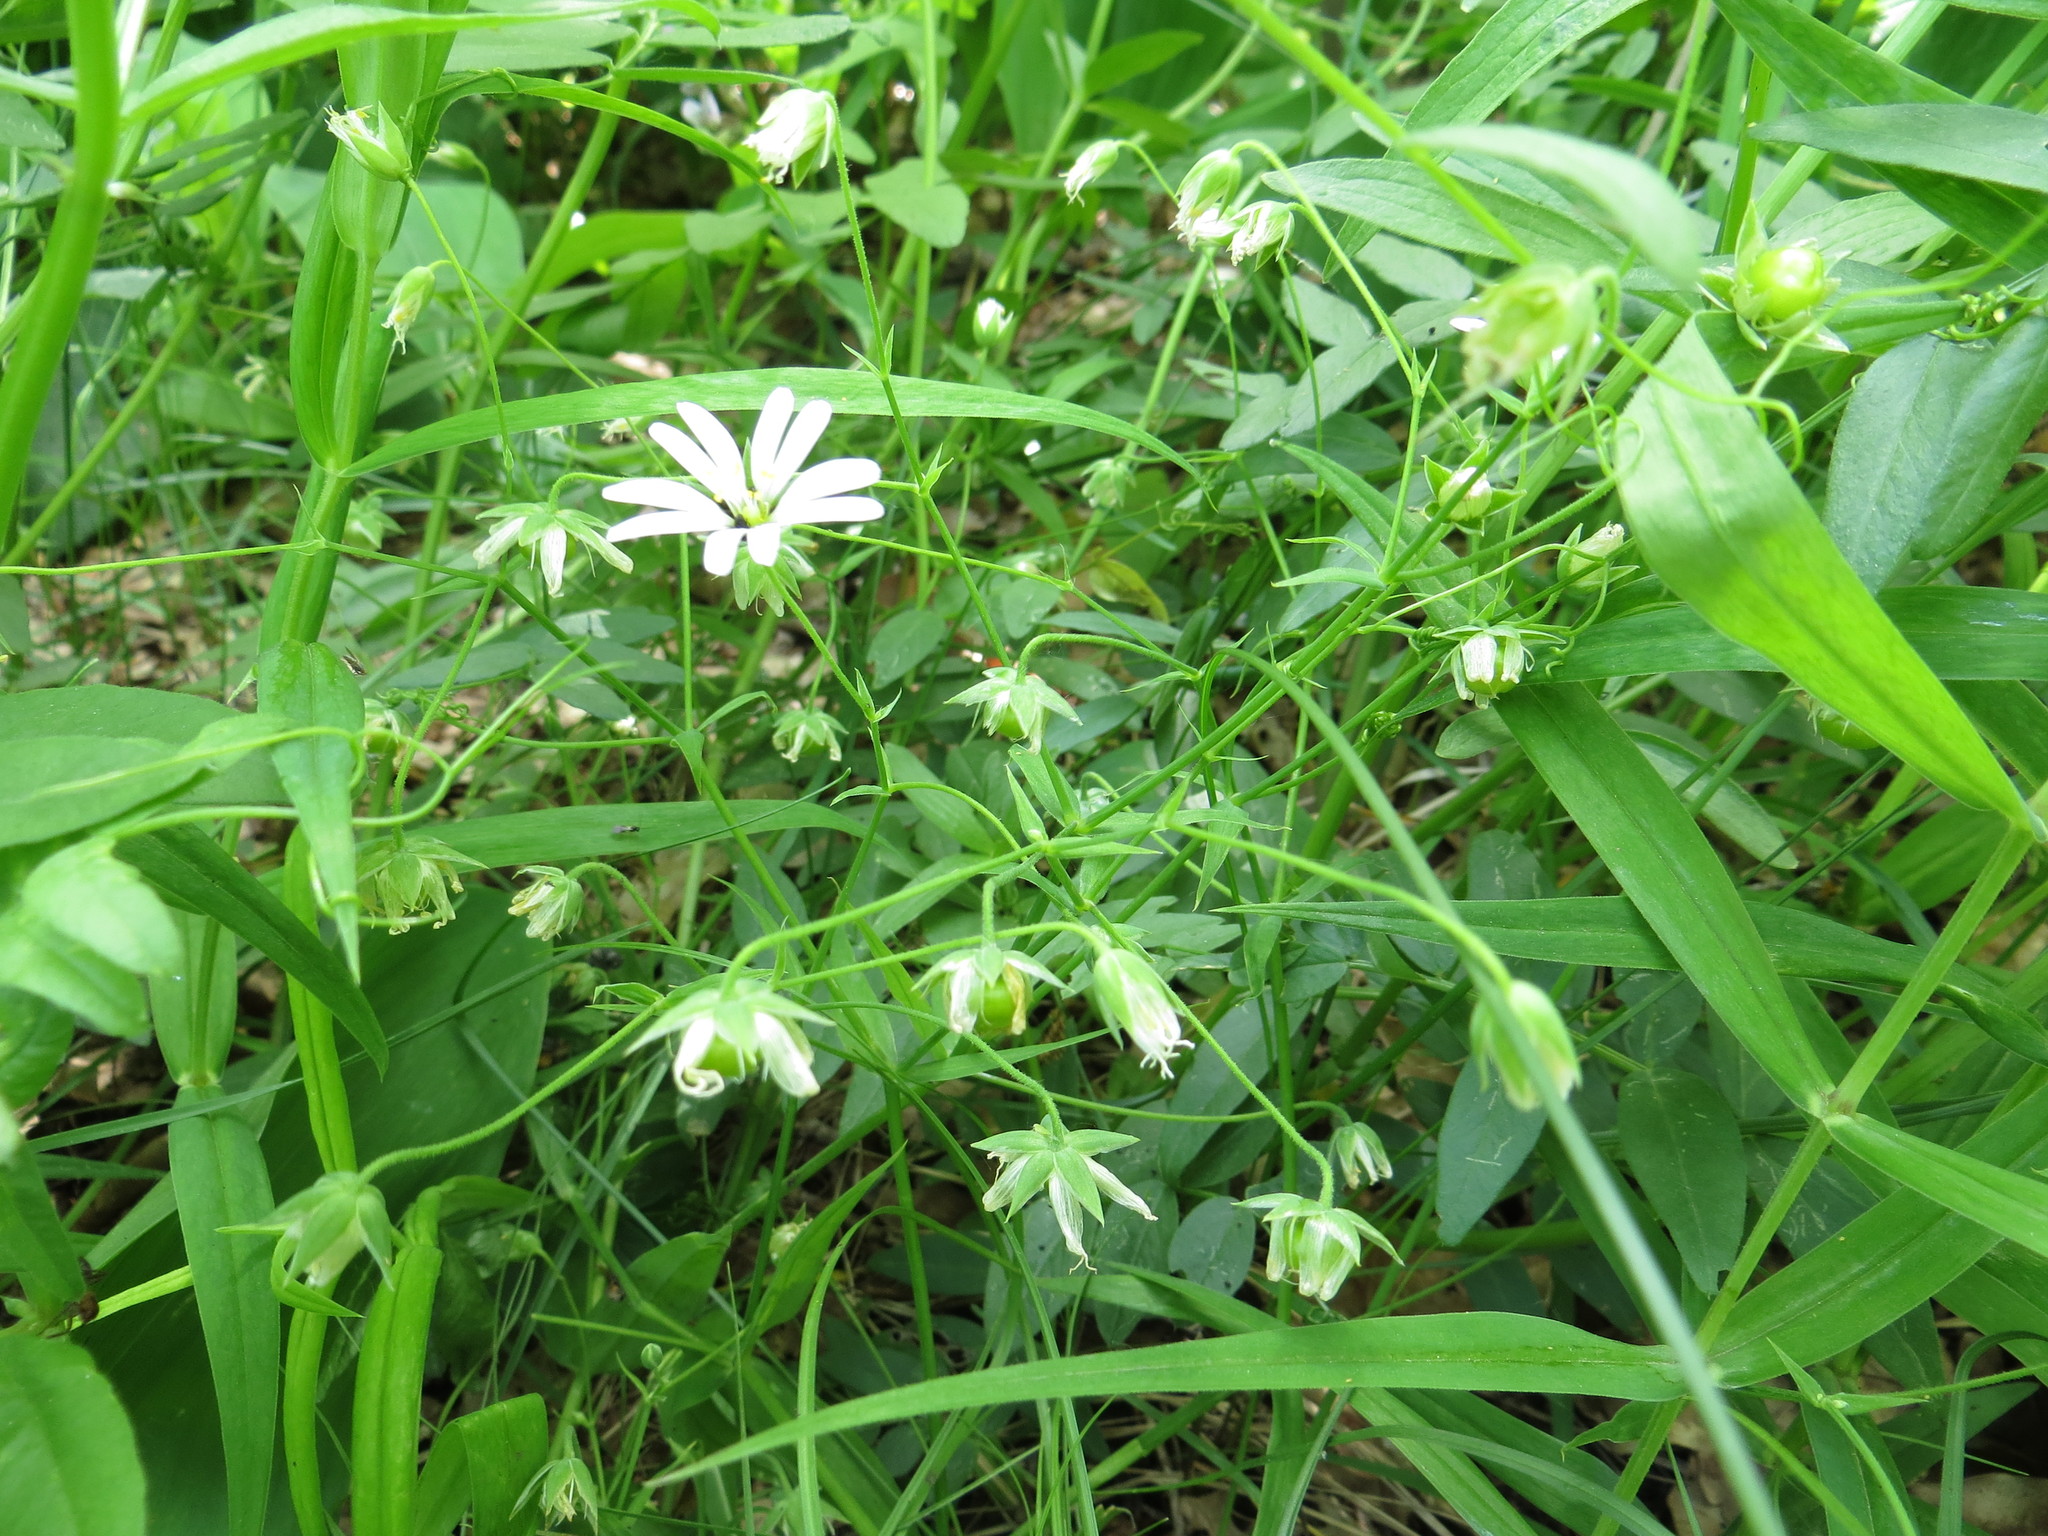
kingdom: Plantae
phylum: Tracheophyta
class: Magnoliopsida
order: Caryophyllales
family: Caryophyllaceae
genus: Rabelera
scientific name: Rabelera holostea
